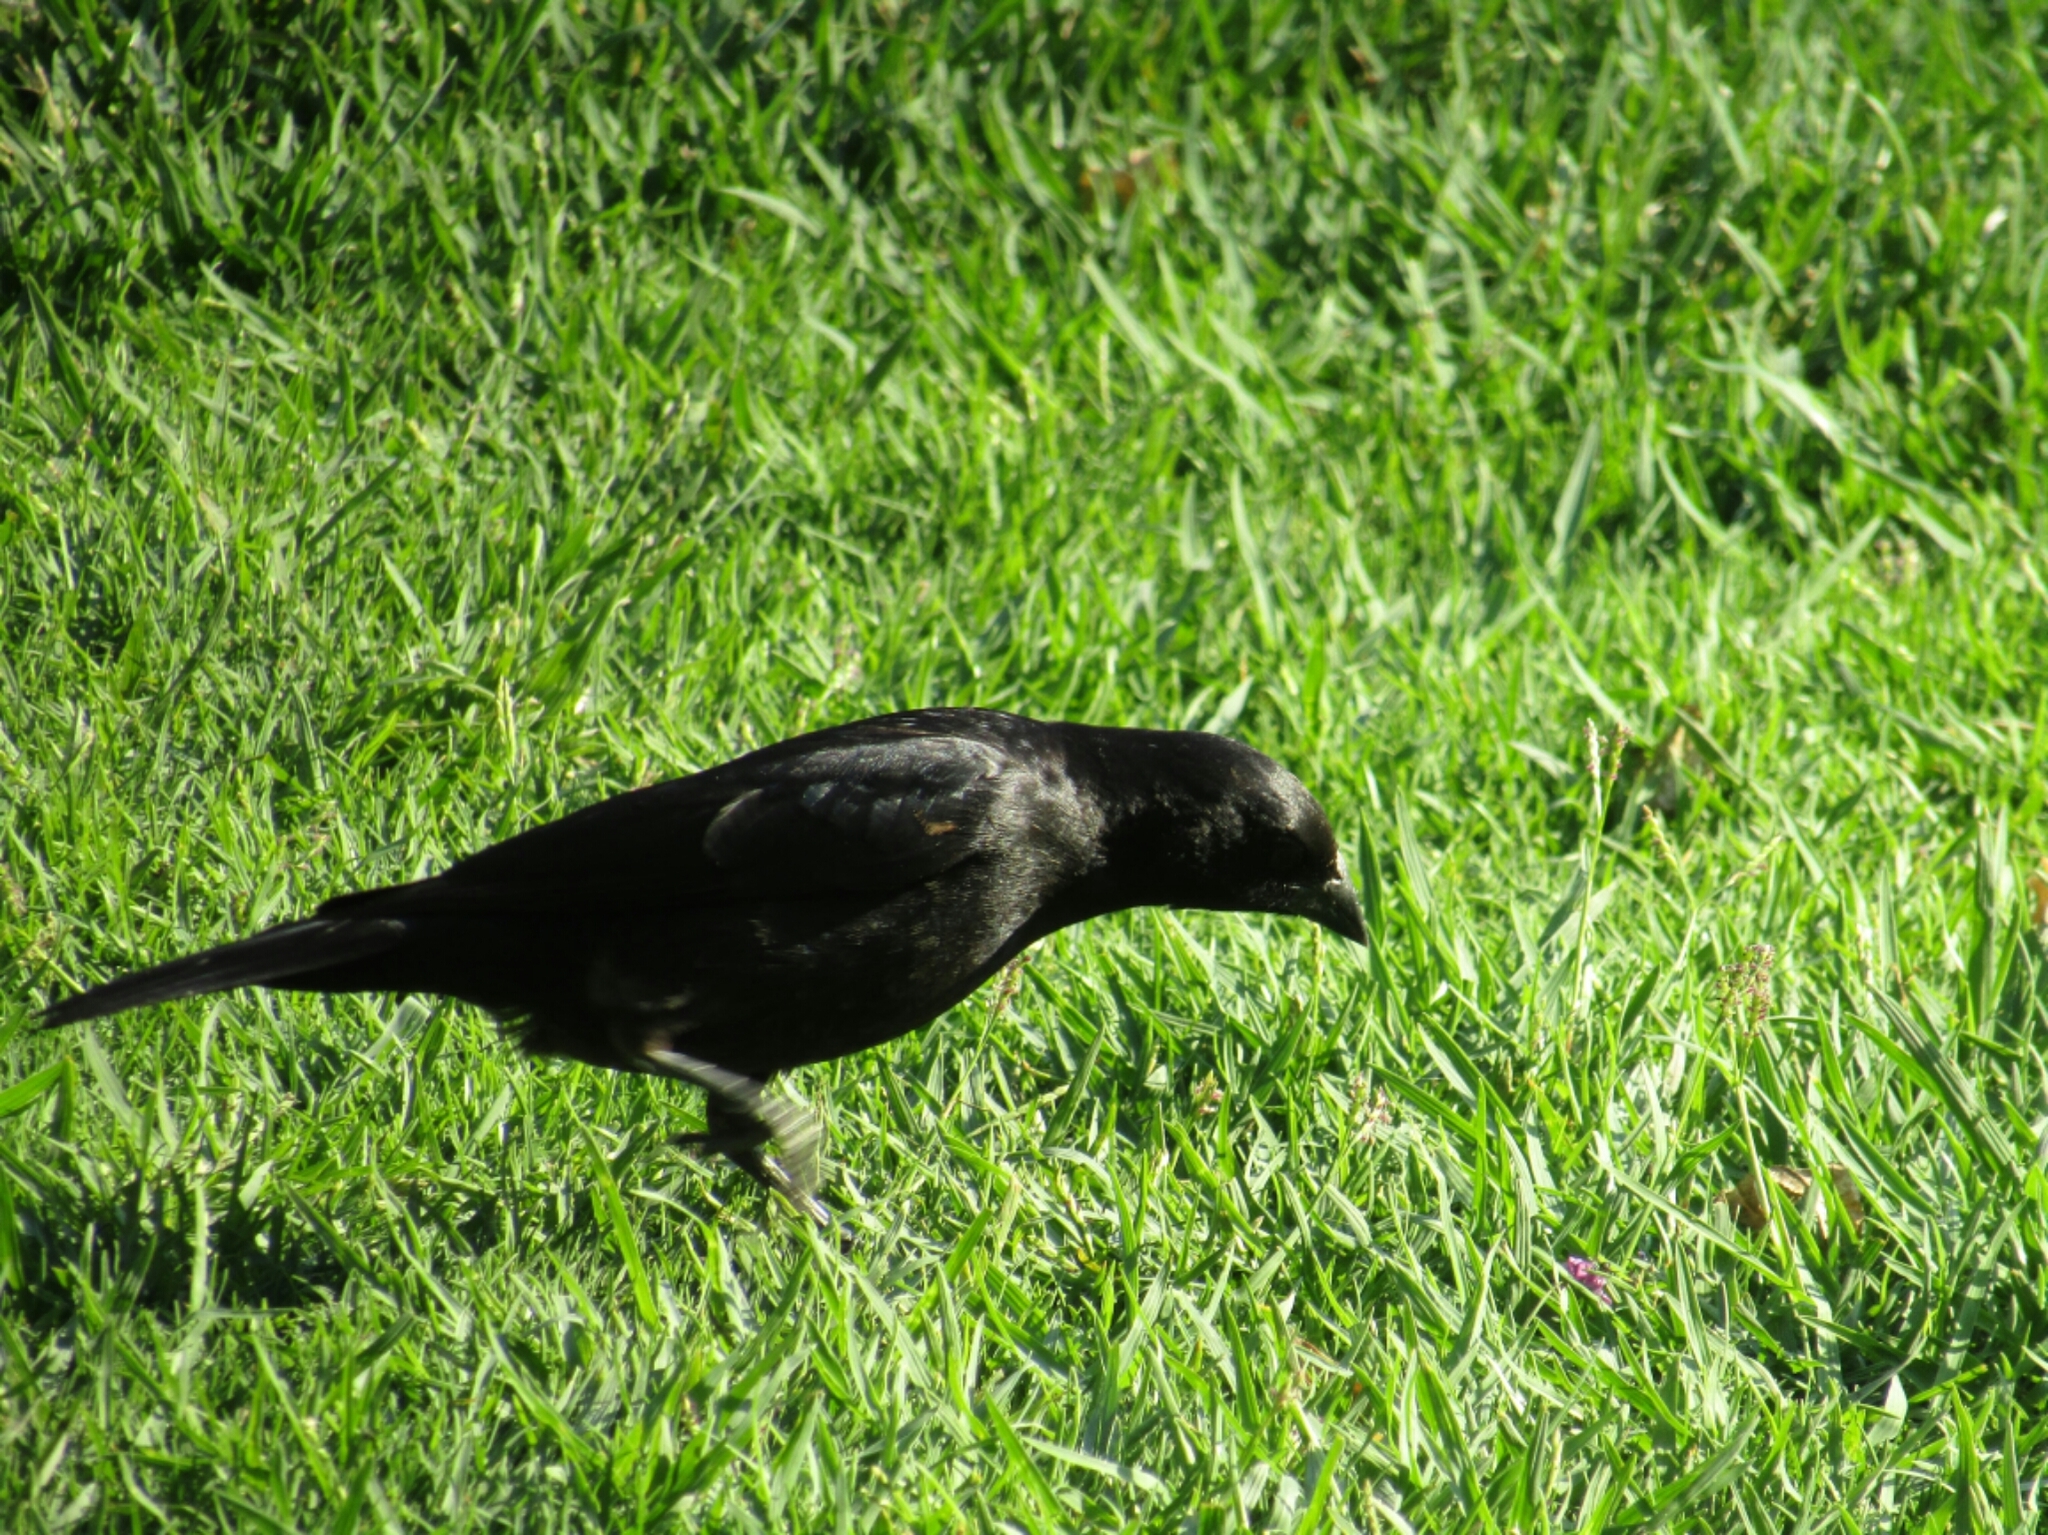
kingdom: Animalia
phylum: Chordata
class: Aves
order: Passeriformes
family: Icteridae
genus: Molothrus
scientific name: Molothrus rufoaxillaris
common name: Screaming cowbird
